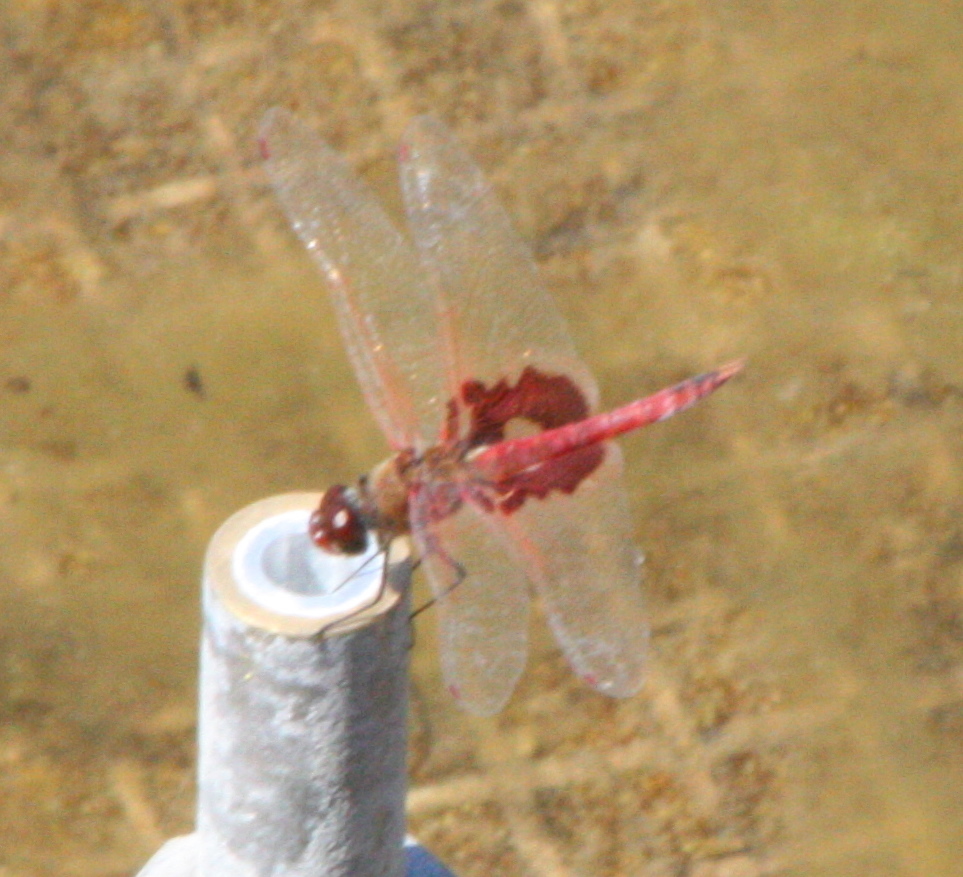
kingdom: Animalia
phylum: Arthropoda
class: Insecta
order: Odonata
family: Libellulidae
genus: Tramea
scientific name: Tramea onusta
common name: Red saddlebags
